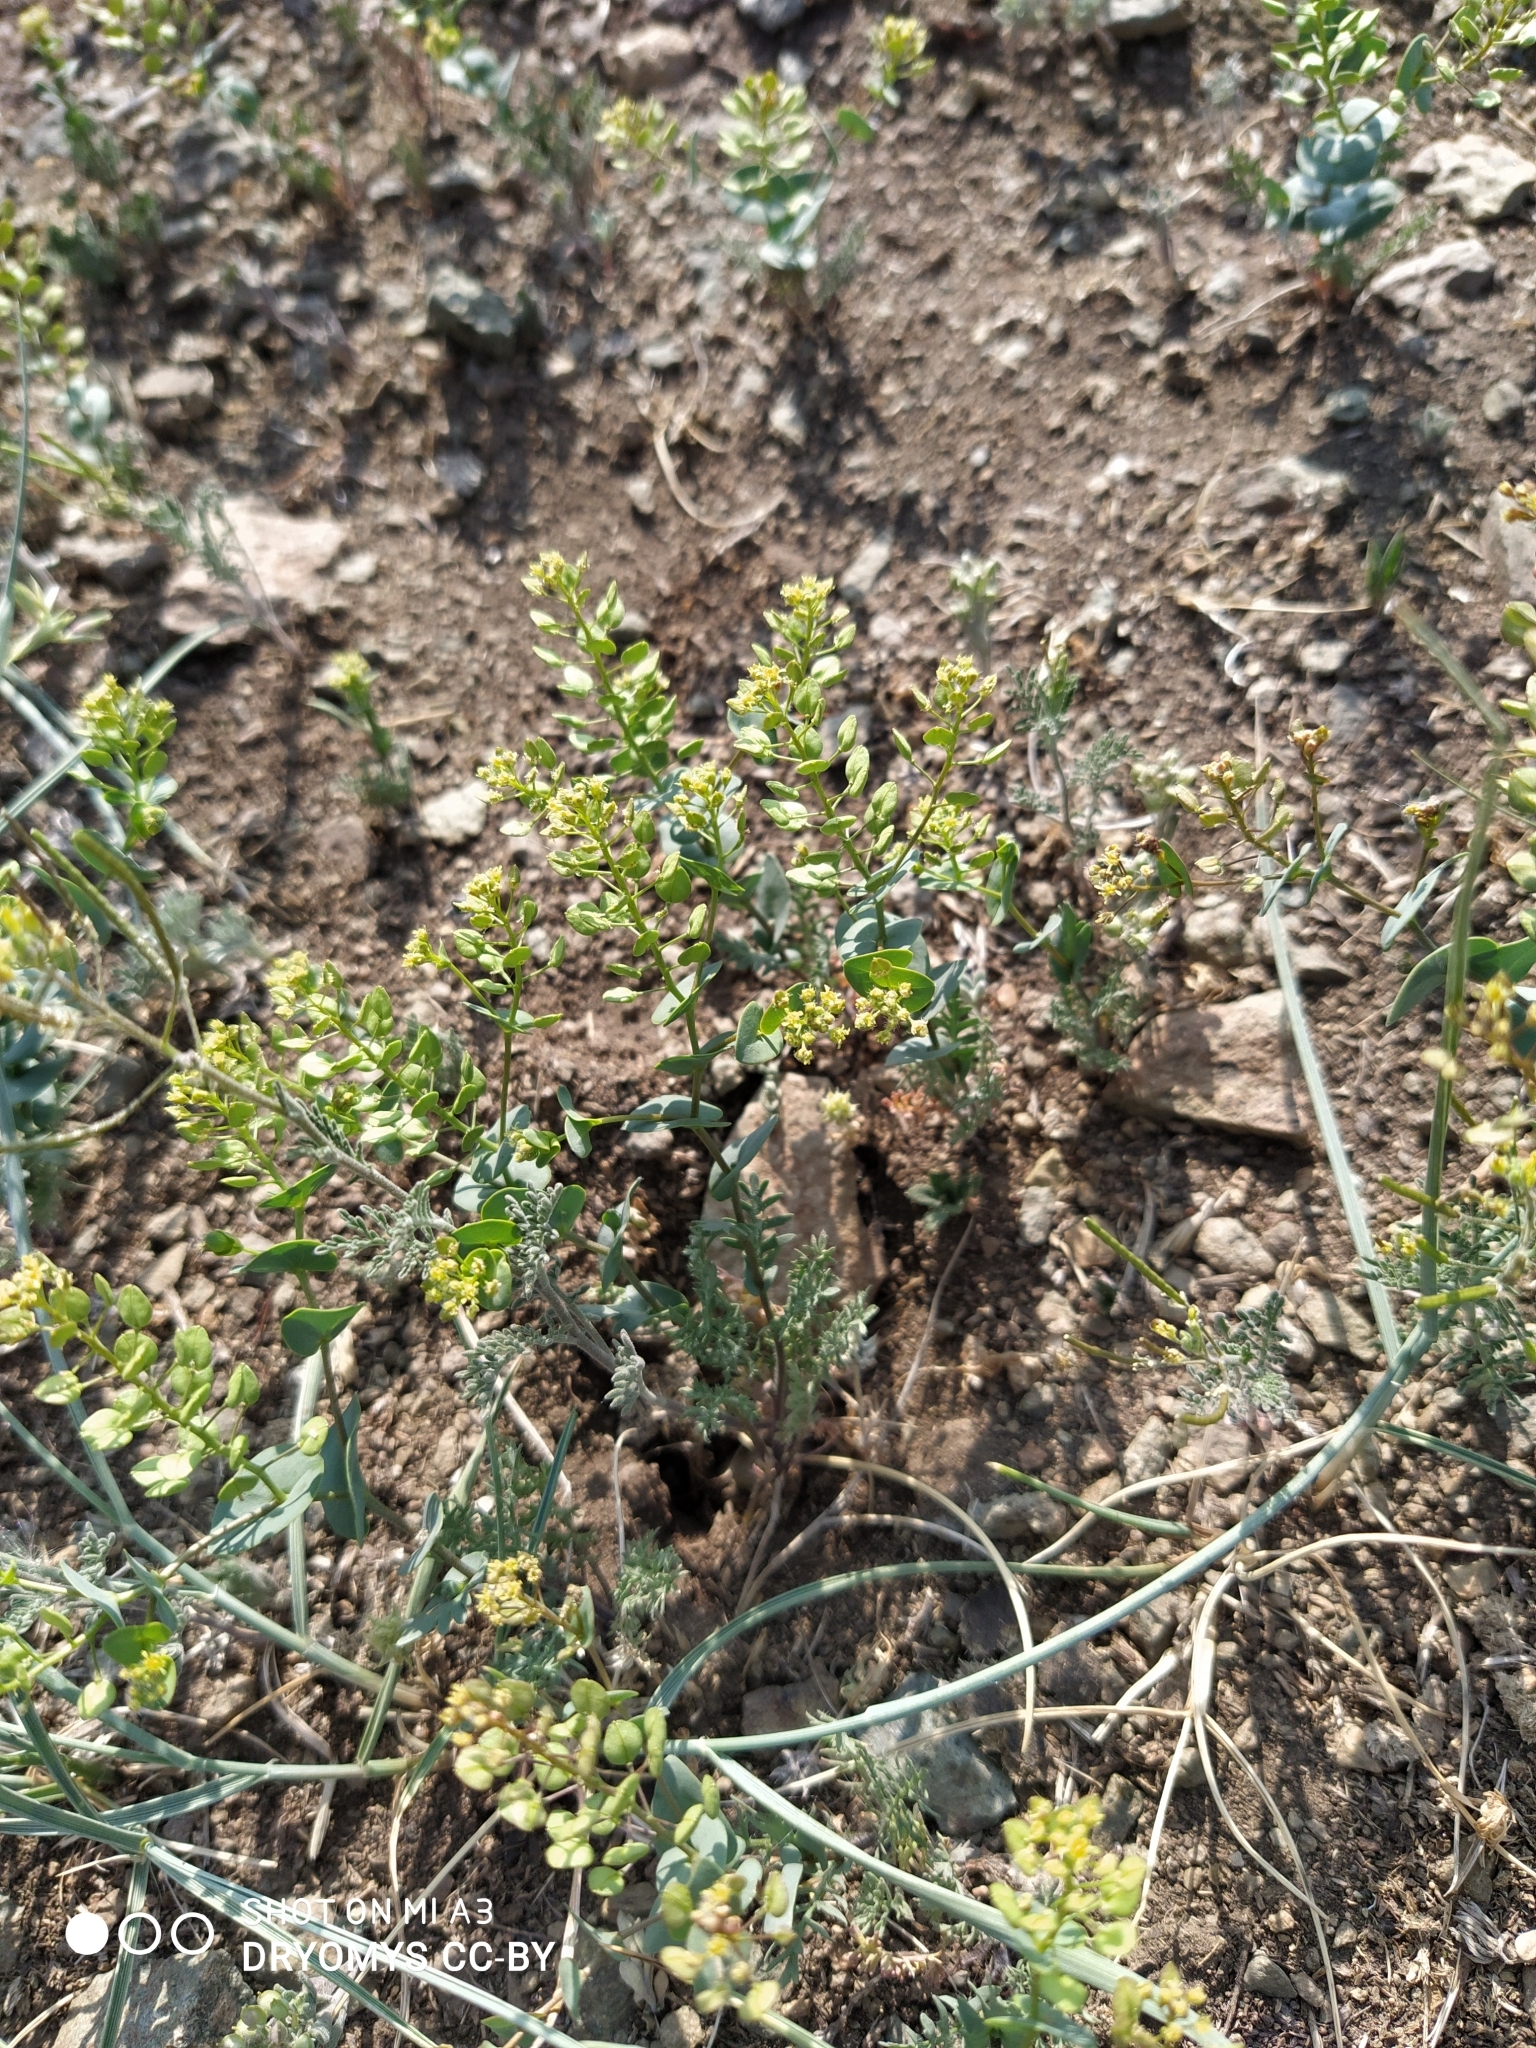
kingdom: Plantae
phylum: Tracheophyta
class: Magnoliopsida
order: Brassicales
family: Brassicaceae
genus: Lepidium
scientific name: Lepidium perfoliatum
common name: Perfoliate pepperwort
